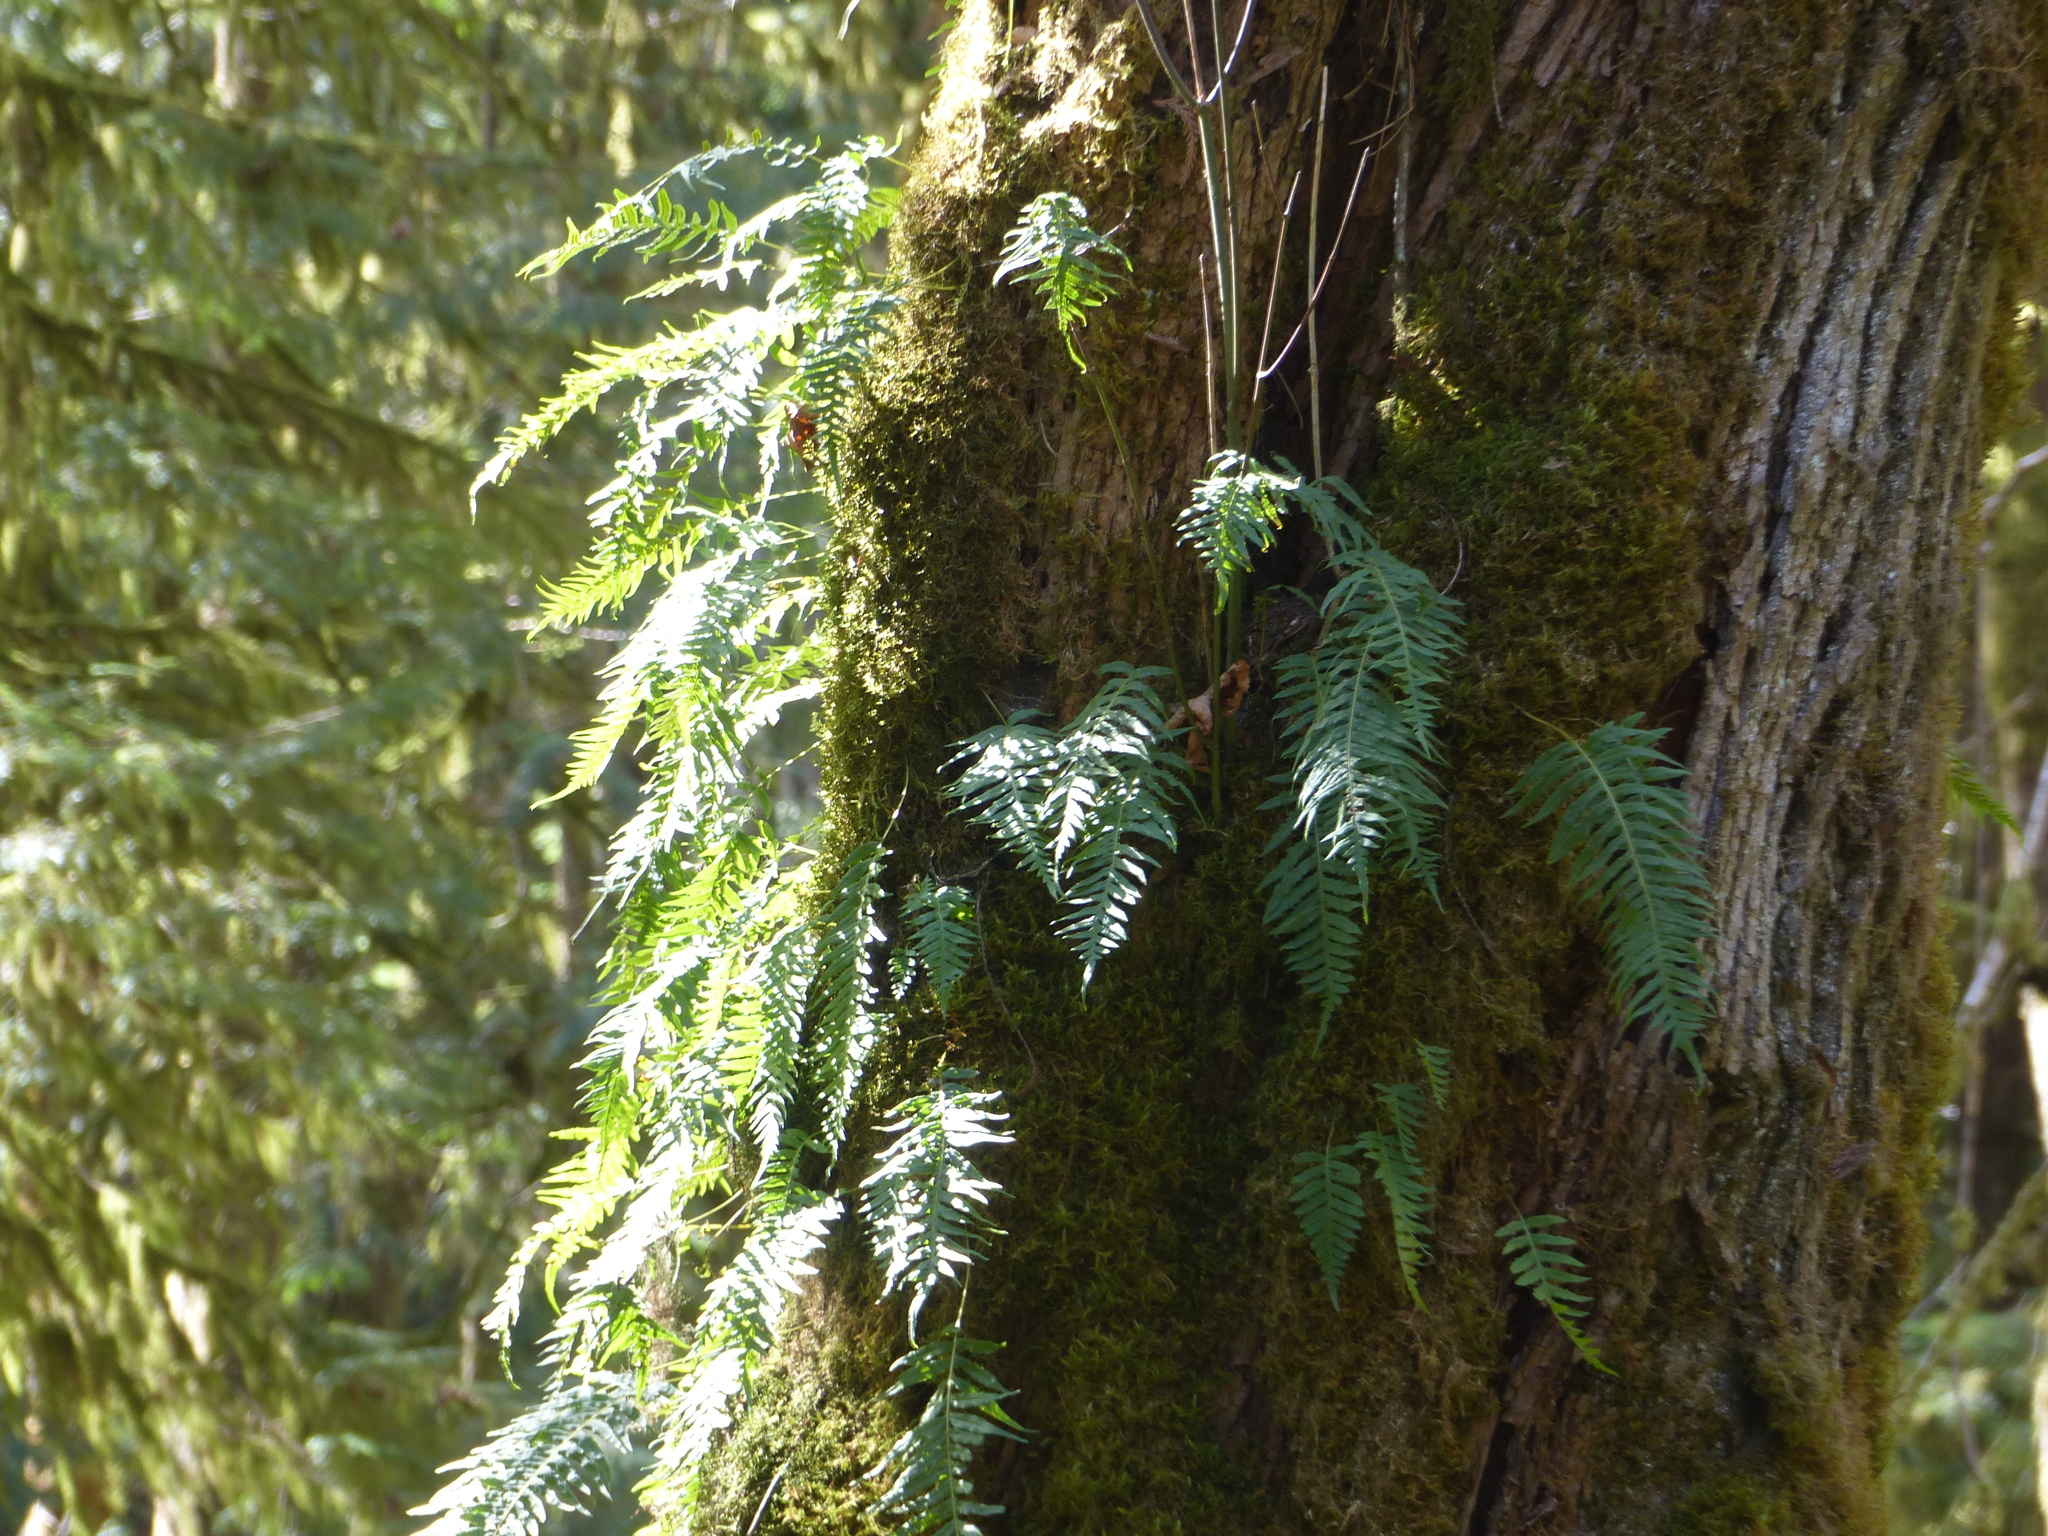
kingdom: Plantae
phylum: Tracheophyta
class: Polypodiopsida
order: Polypodiales
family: Polypodiaceae
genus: Polypodium
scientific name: Polypodium glycyrrhiza
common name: Licorice fern
